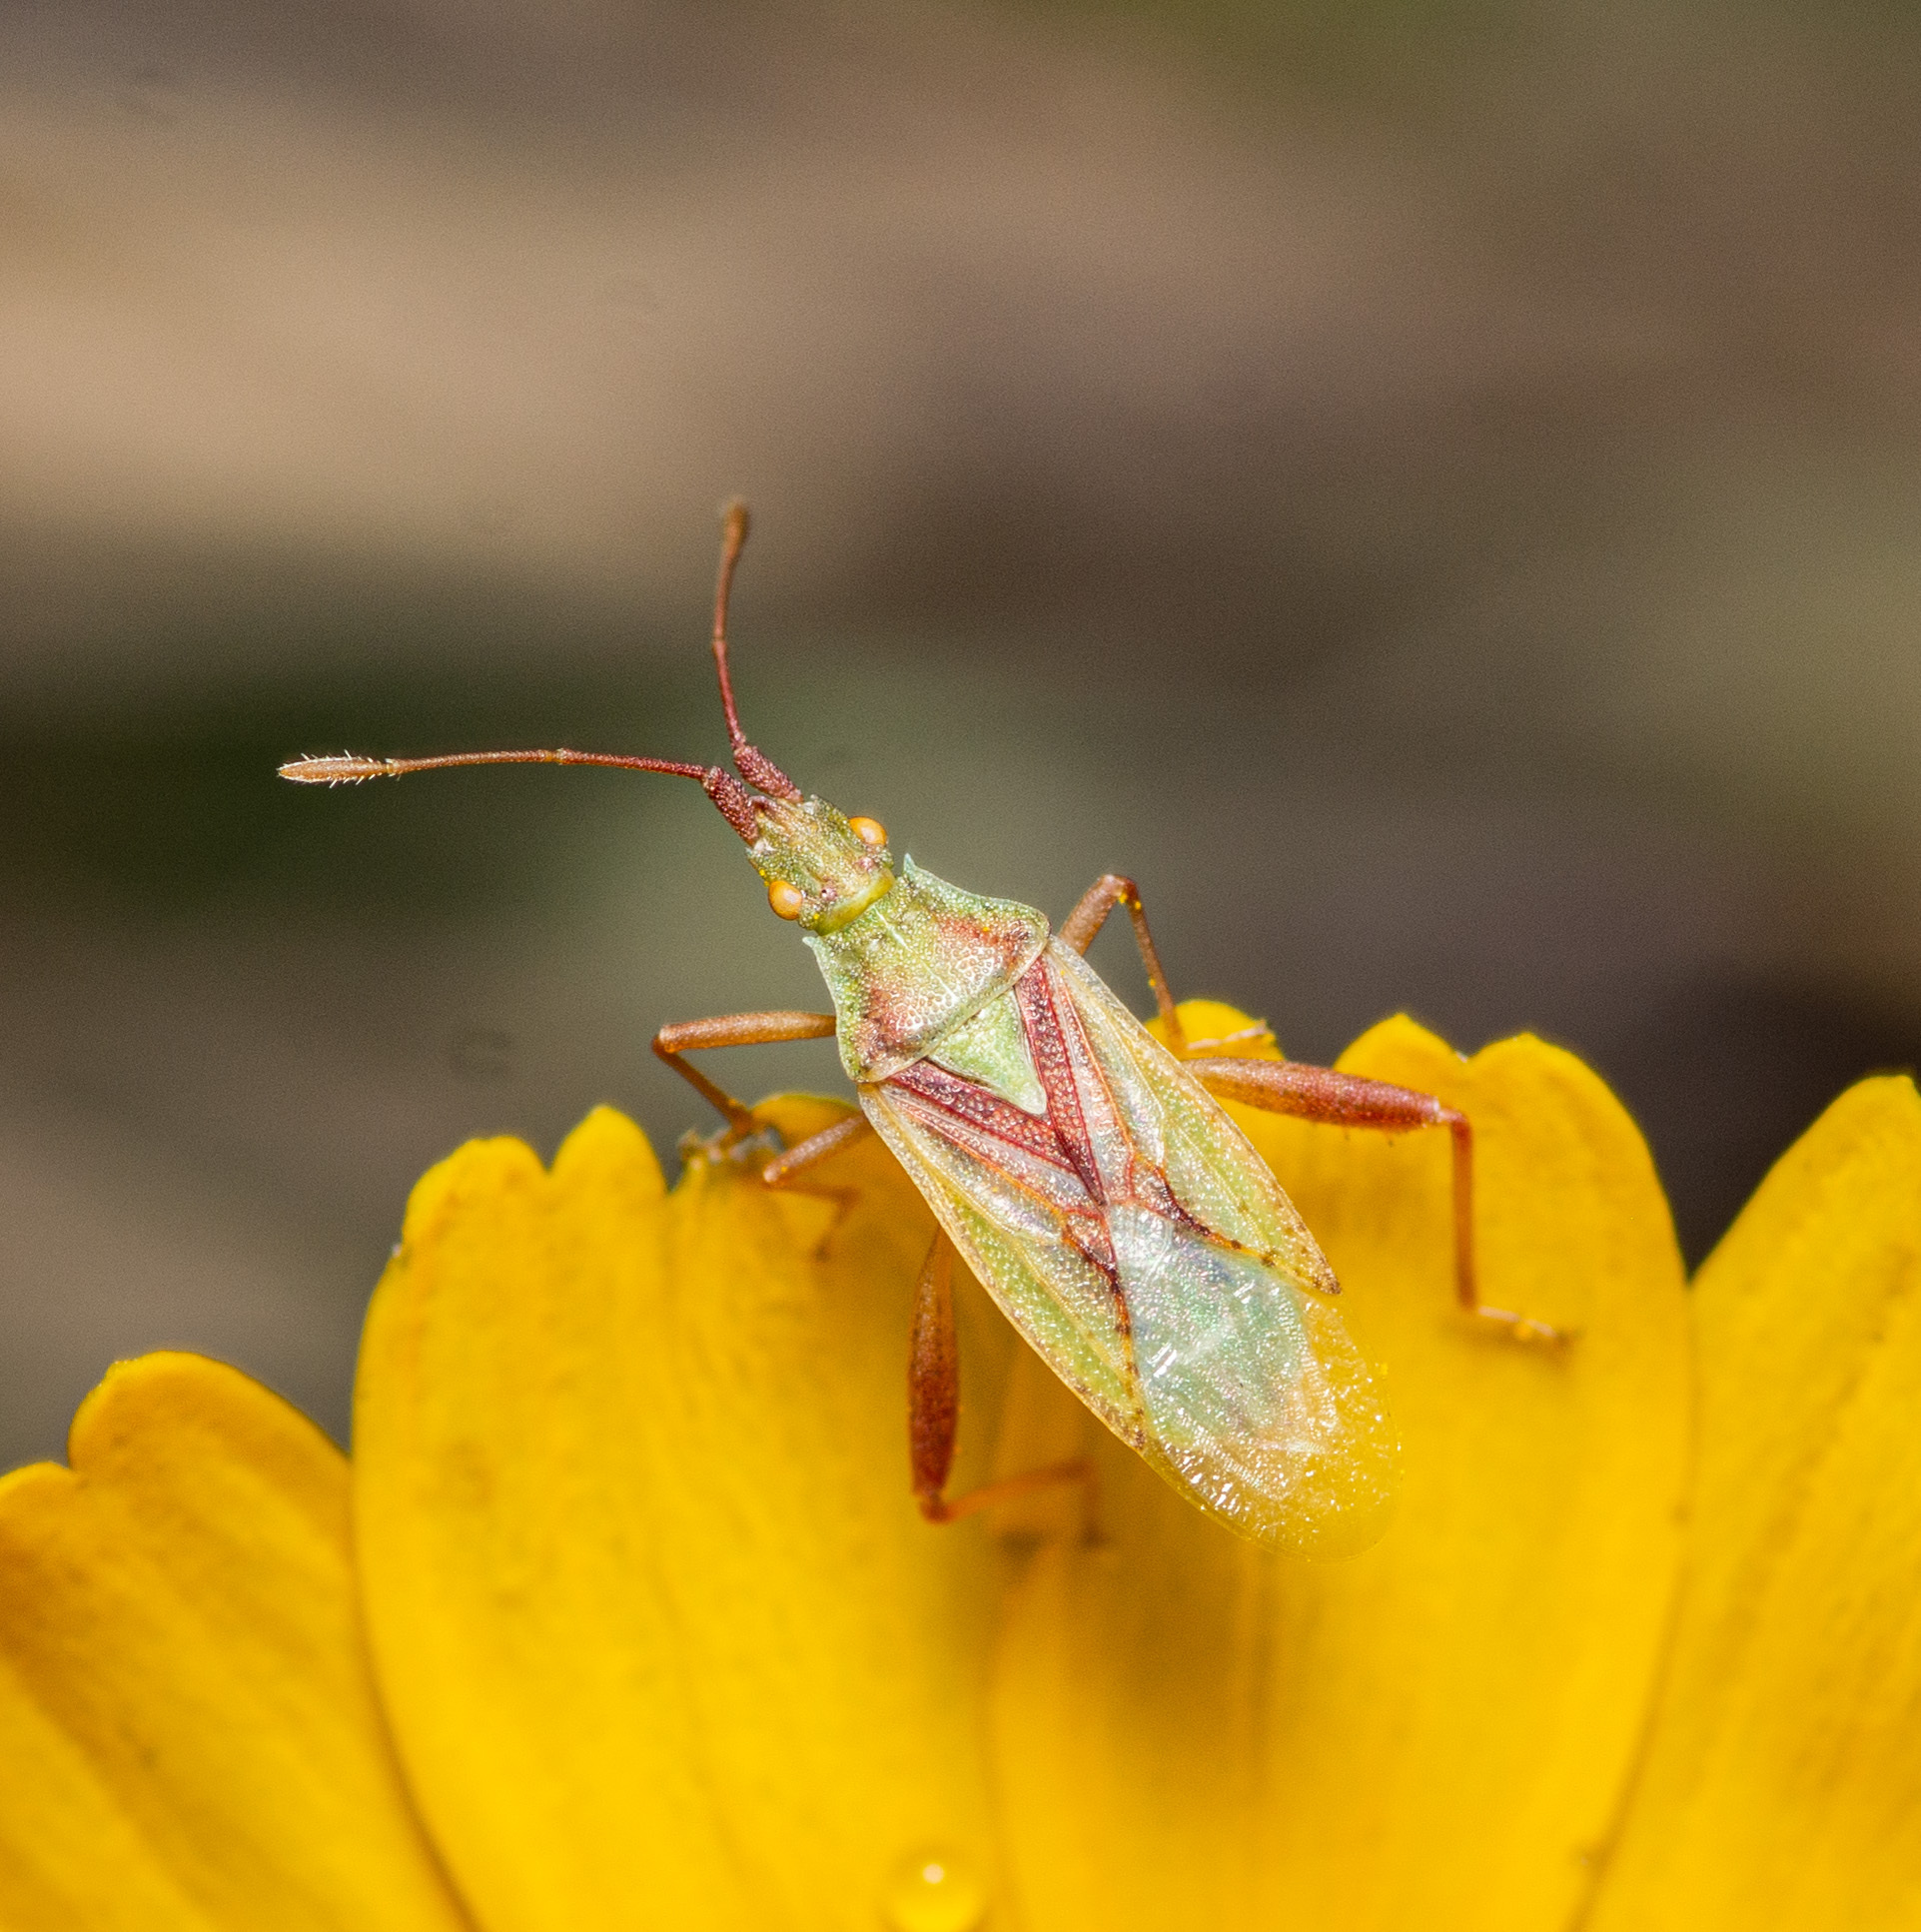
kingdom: Animalia
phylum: Arthropoda
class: Insecta
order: Hemiptera
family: Rhopalidae
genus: Harmostes
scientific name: Harmostes reflexulus
